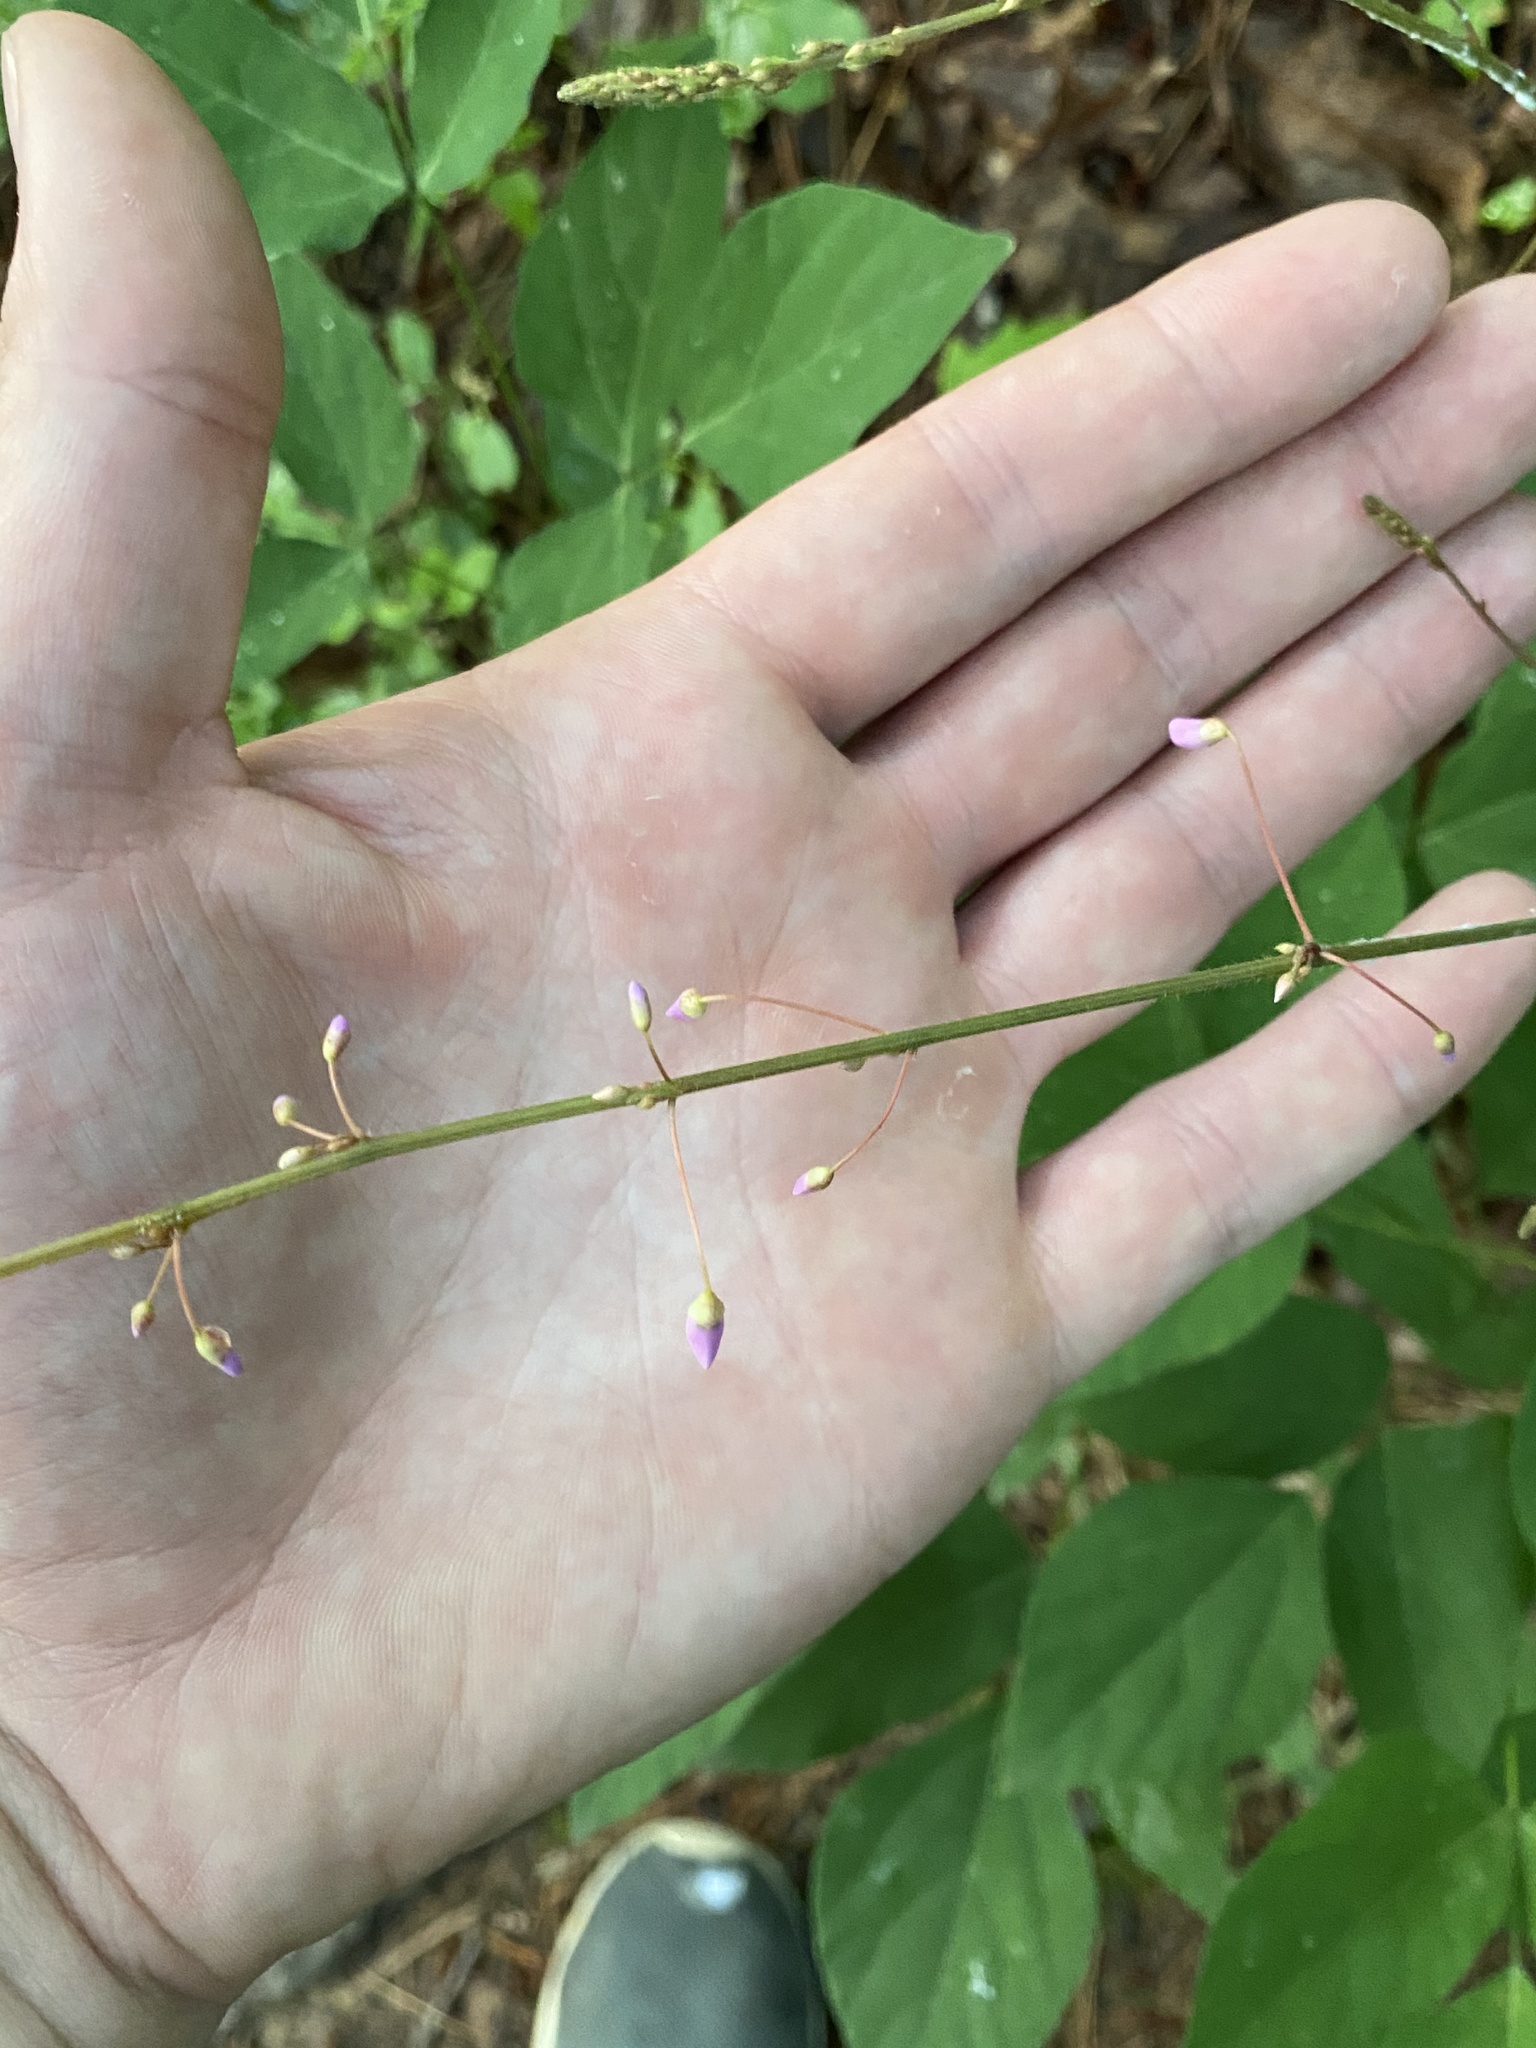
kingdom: Plantae
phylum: Tracheophyta
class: Magnoliopsida
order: Fabales
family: Fabaceae
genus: Hylodesmum
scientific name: Hylodesmum nudiflorum
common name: Bare-stemmed tick-trefoil
